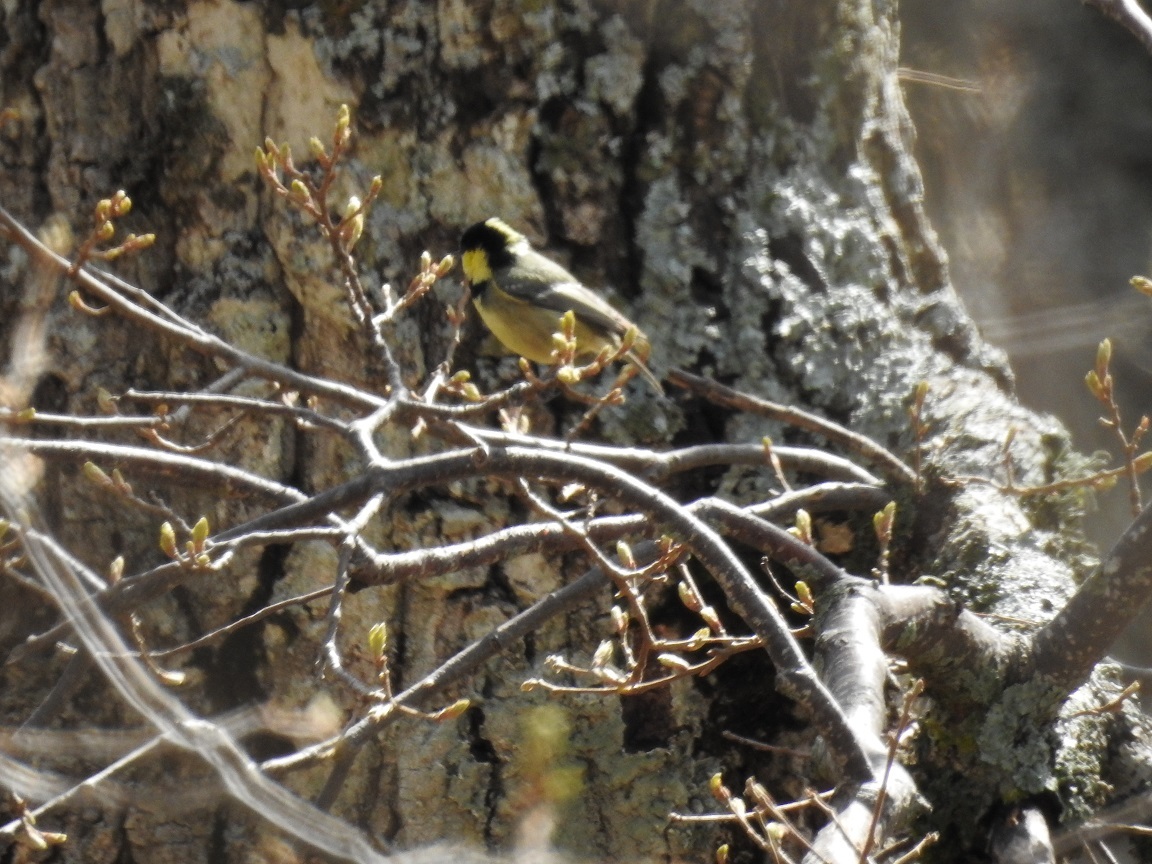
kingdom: Animalia
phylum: Chordata
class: Aves
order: Passeriformes
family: Paridae
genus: Periparus
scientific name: Periparus ater
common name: Coal tit
